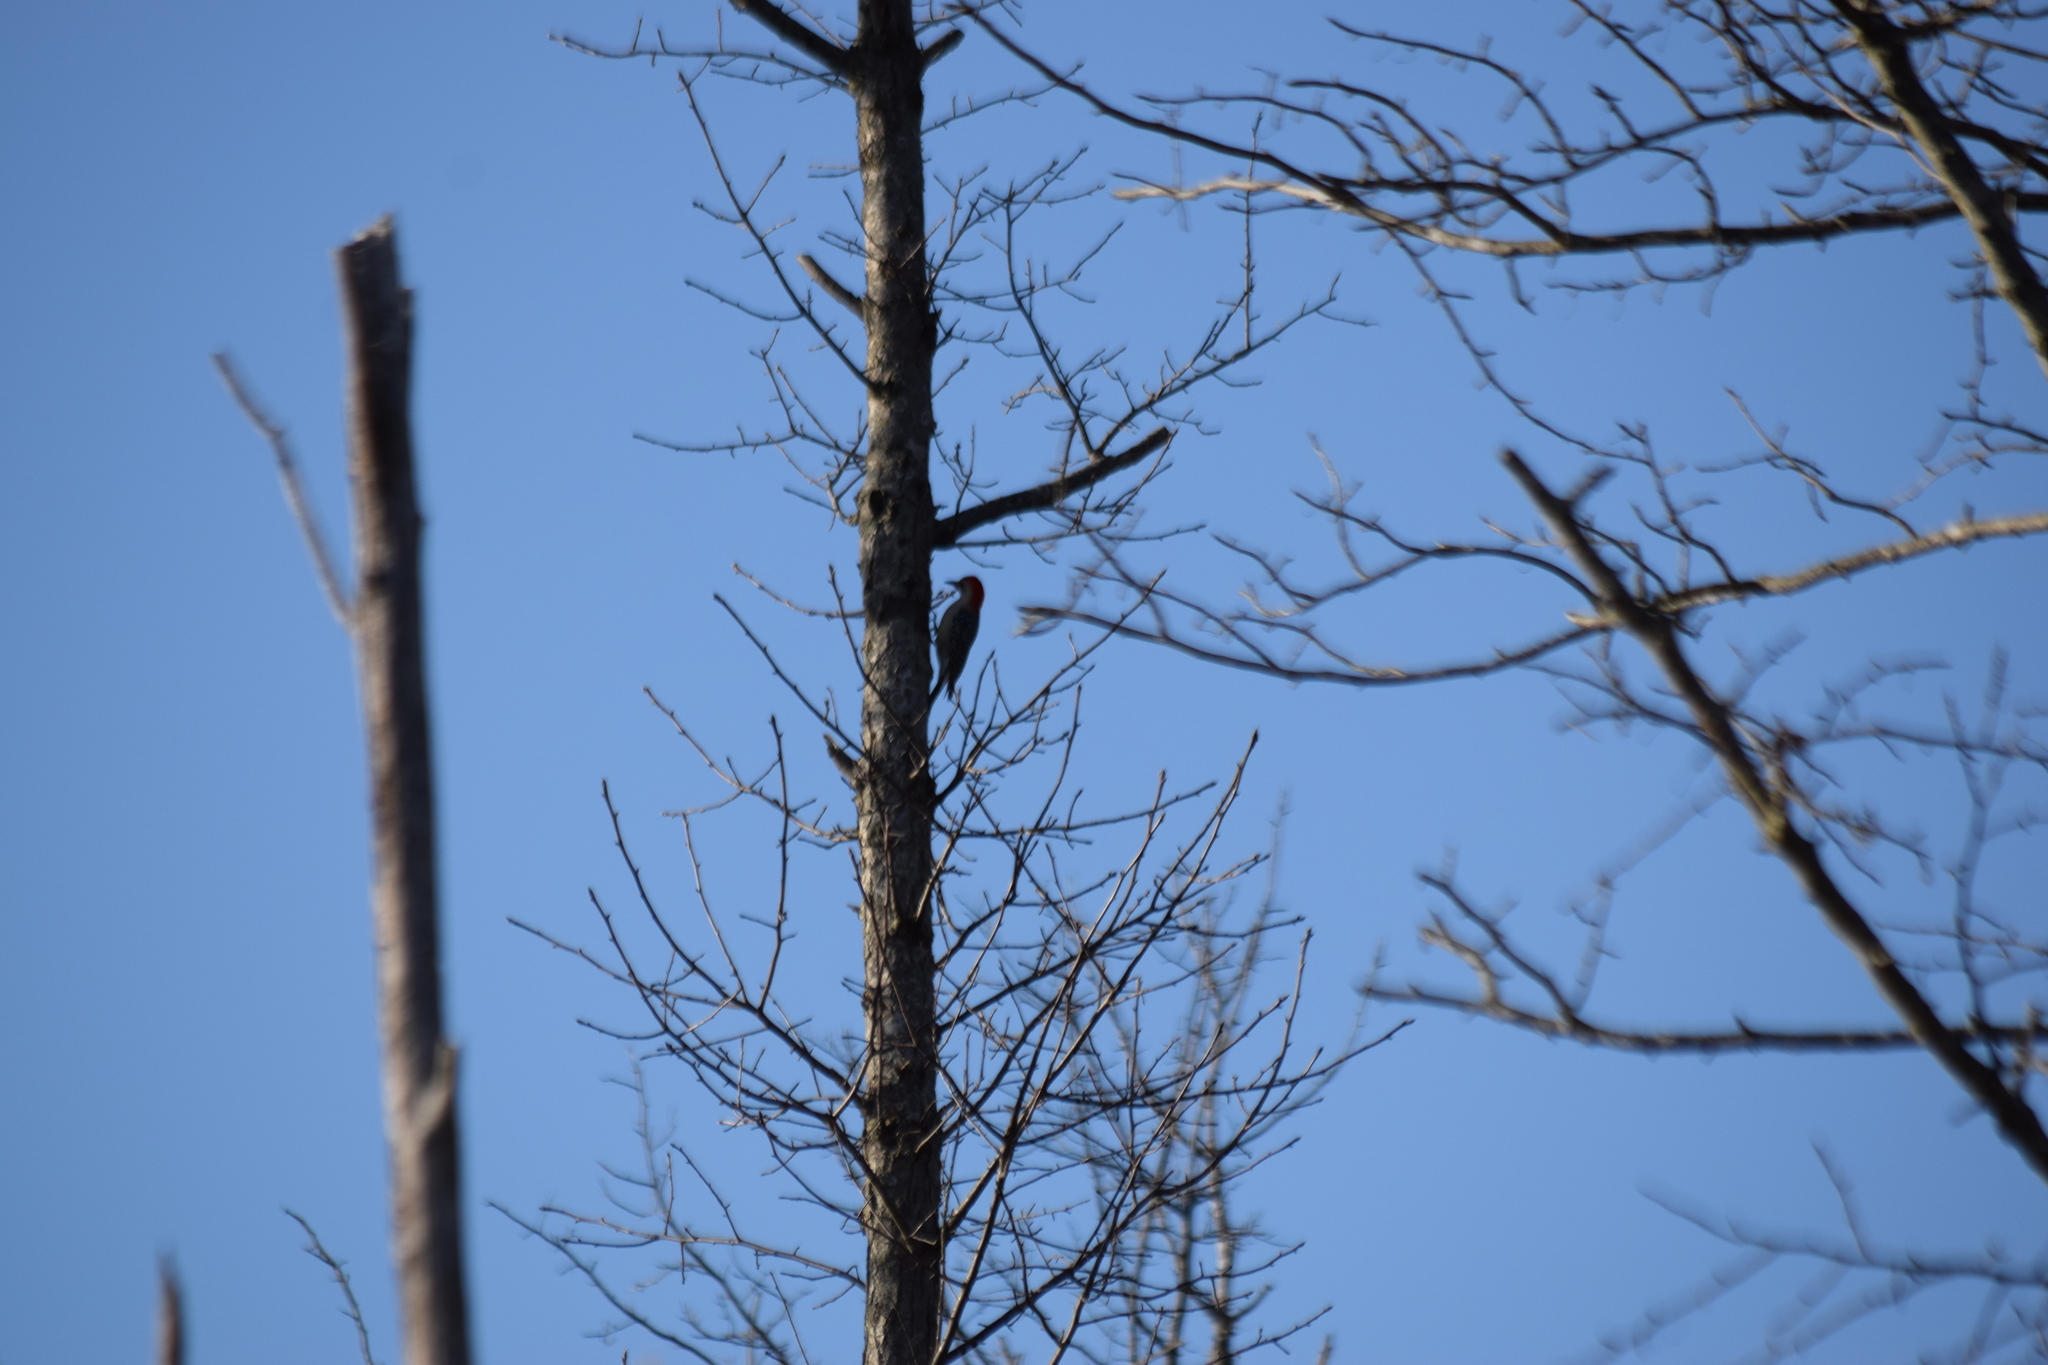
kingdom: Animalia
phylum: Chordata
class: Aves
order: Piciformes
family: Picidae
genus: Melanerpes
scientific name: Melanerpes carolinus
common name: Red-bellied woodpecker
